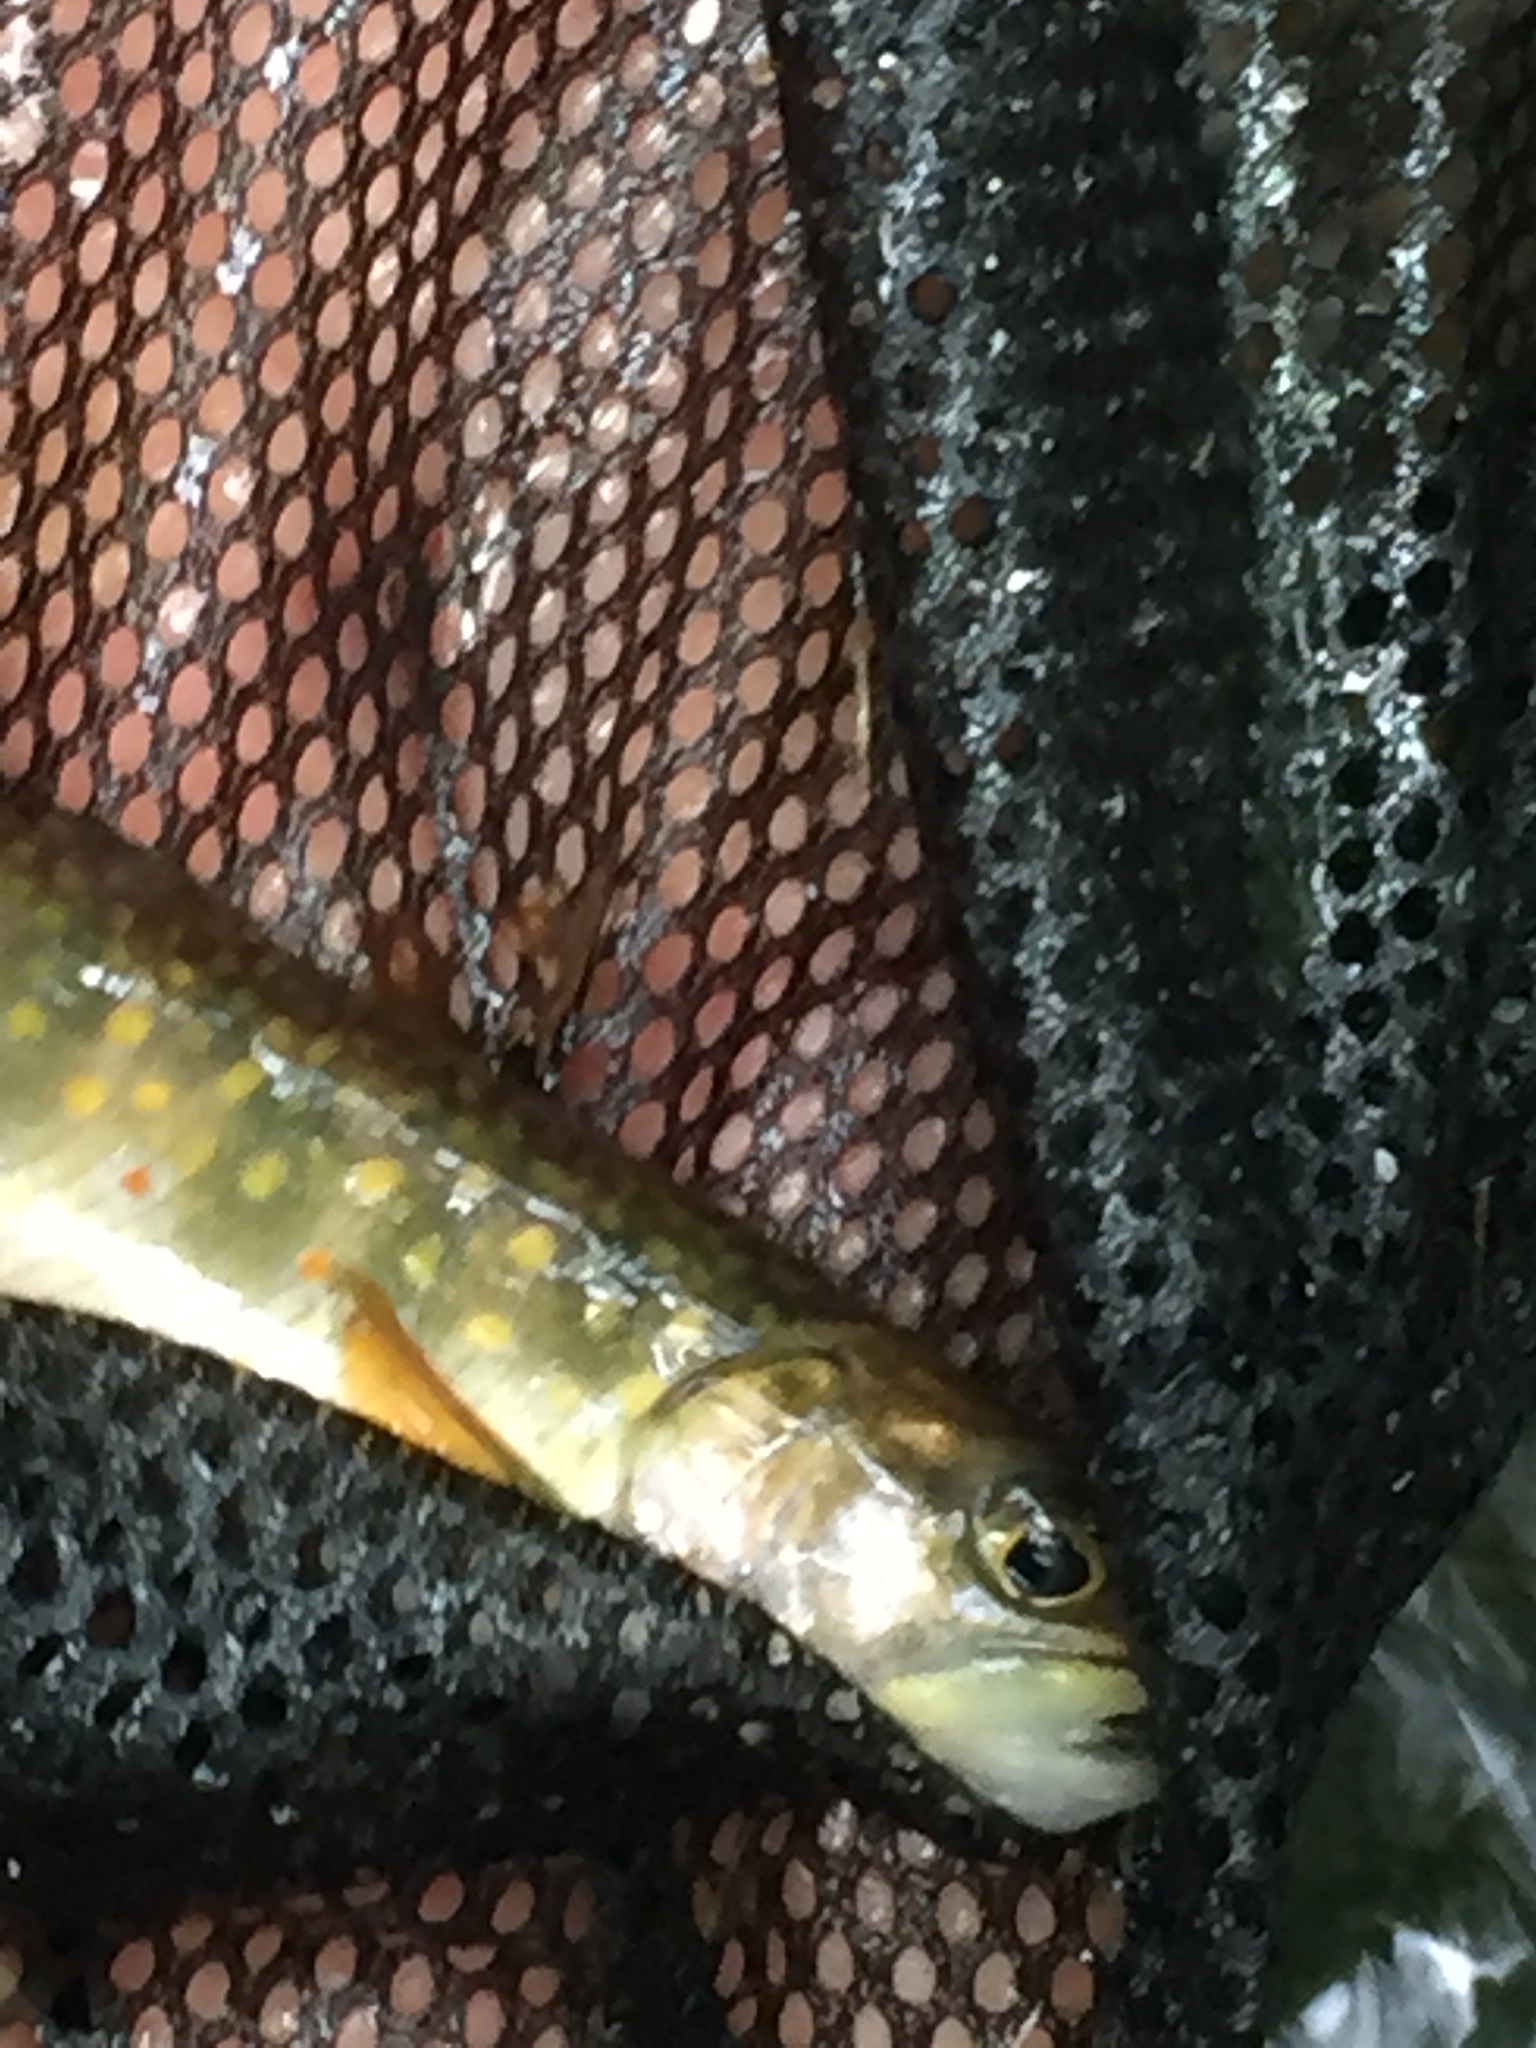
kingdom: Animalia
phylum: Chordata
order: Salmoniformes
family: Salmonidae
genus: Salvelinus
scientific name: Salvelinus fontinalis
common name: Brook trout
